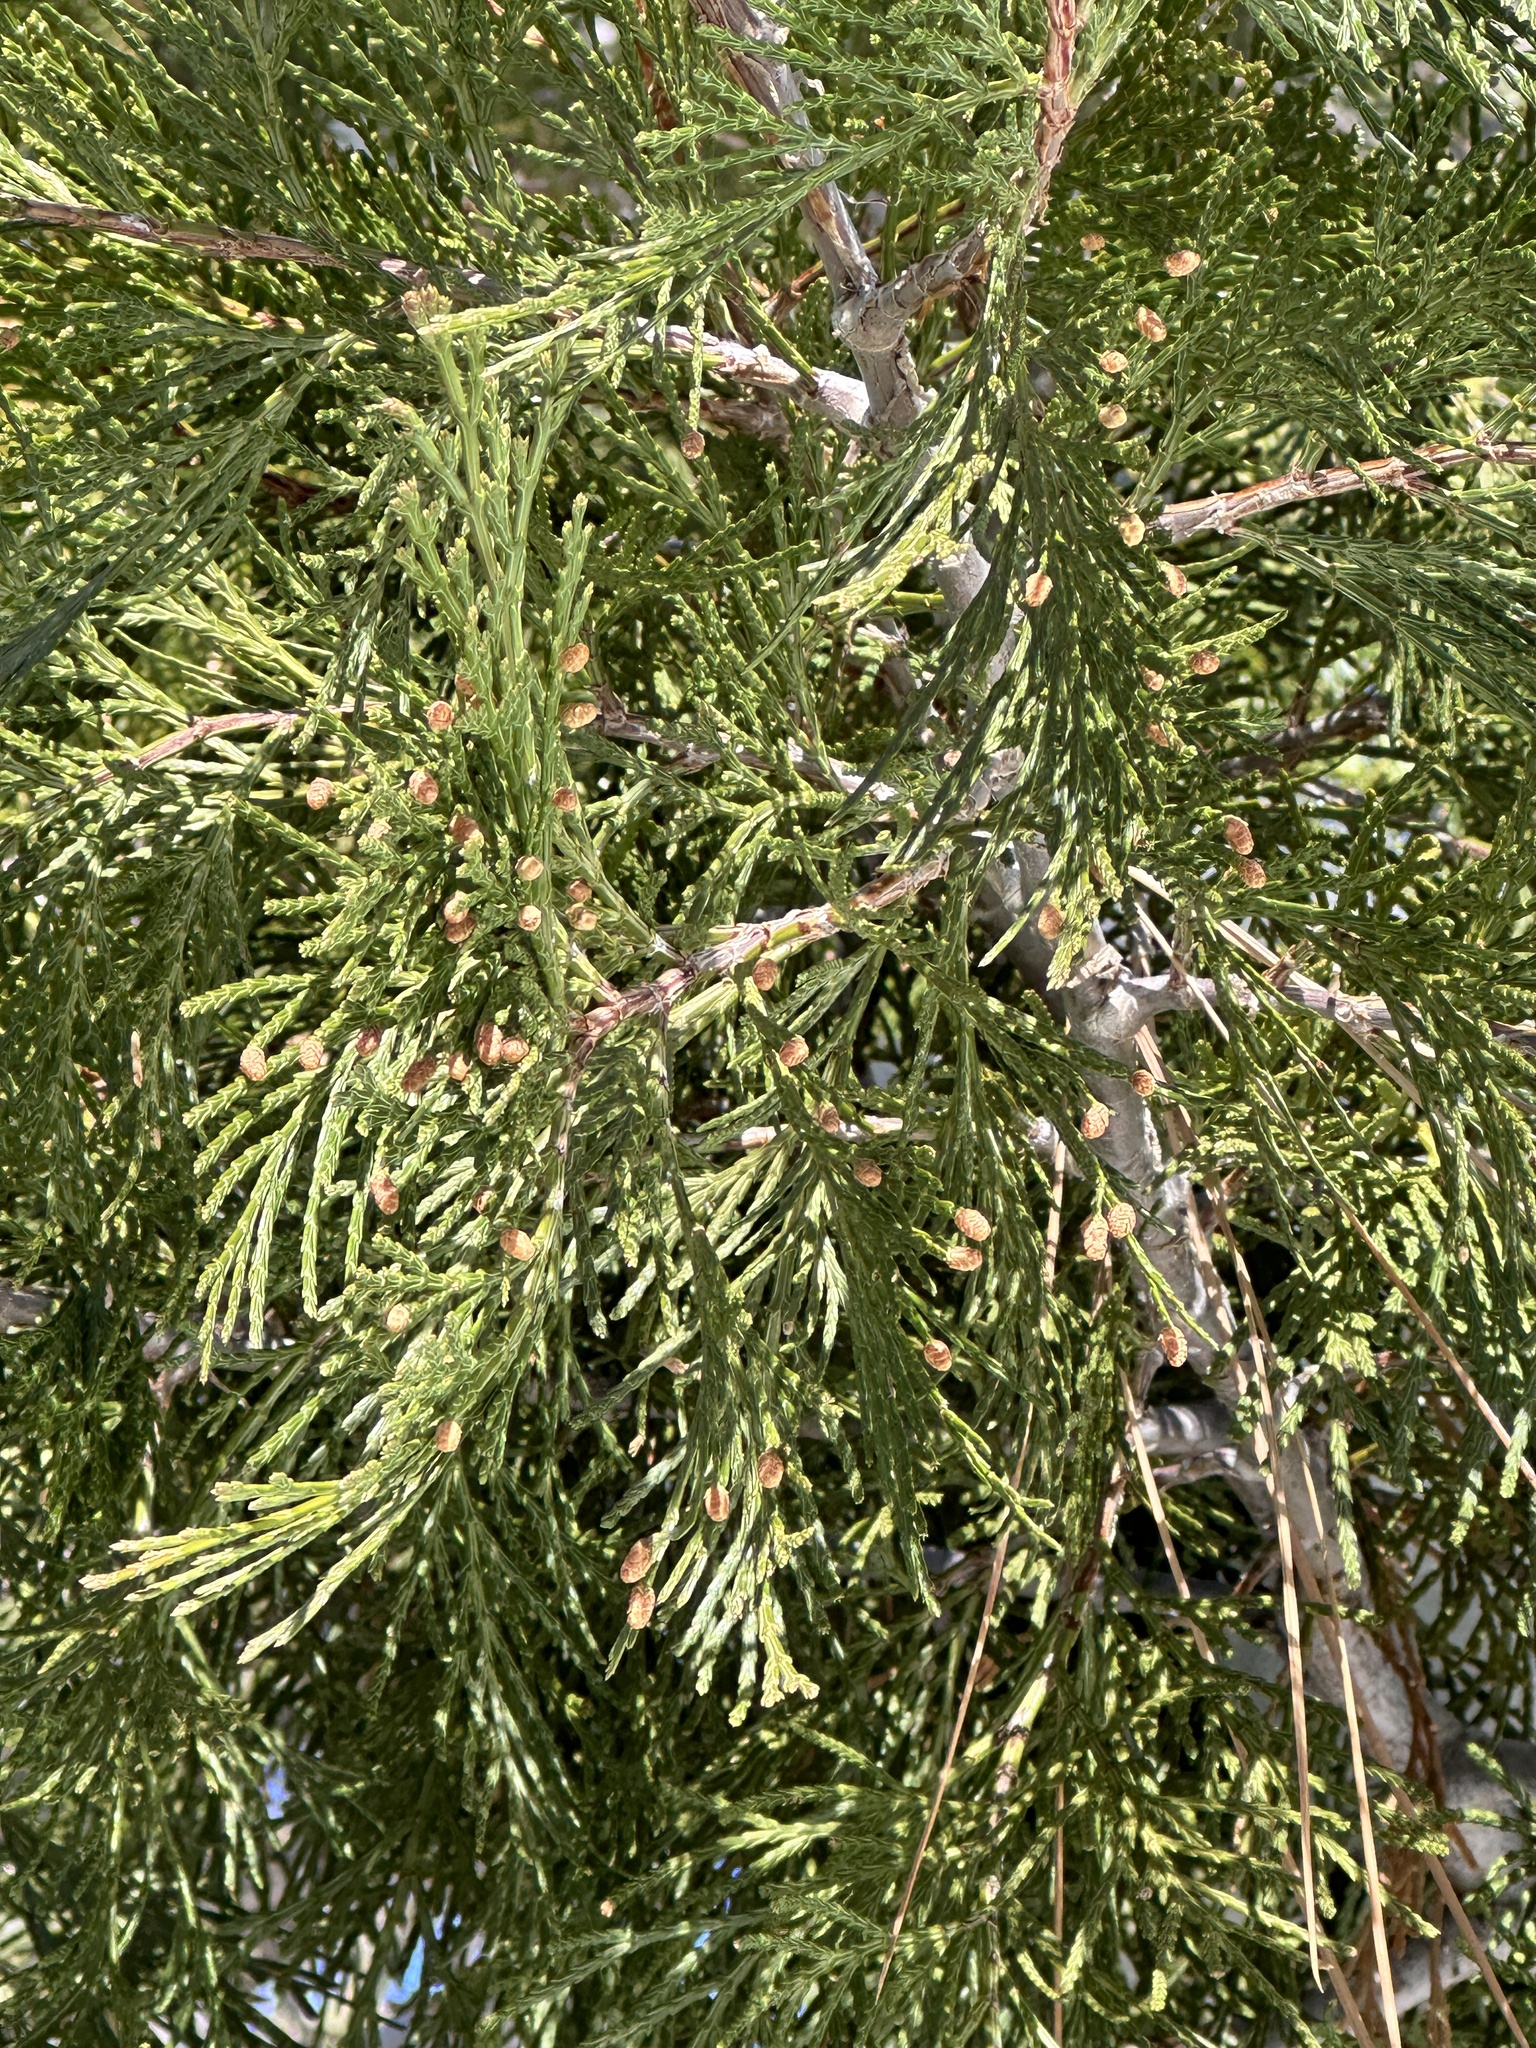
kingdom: Plantae
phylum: Tracheophyta
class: Pinopsida
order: Pinales
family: Cupressaceae
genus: Calocedrus
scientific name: Calocedrus decurrens
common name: Californian incense-cedar
